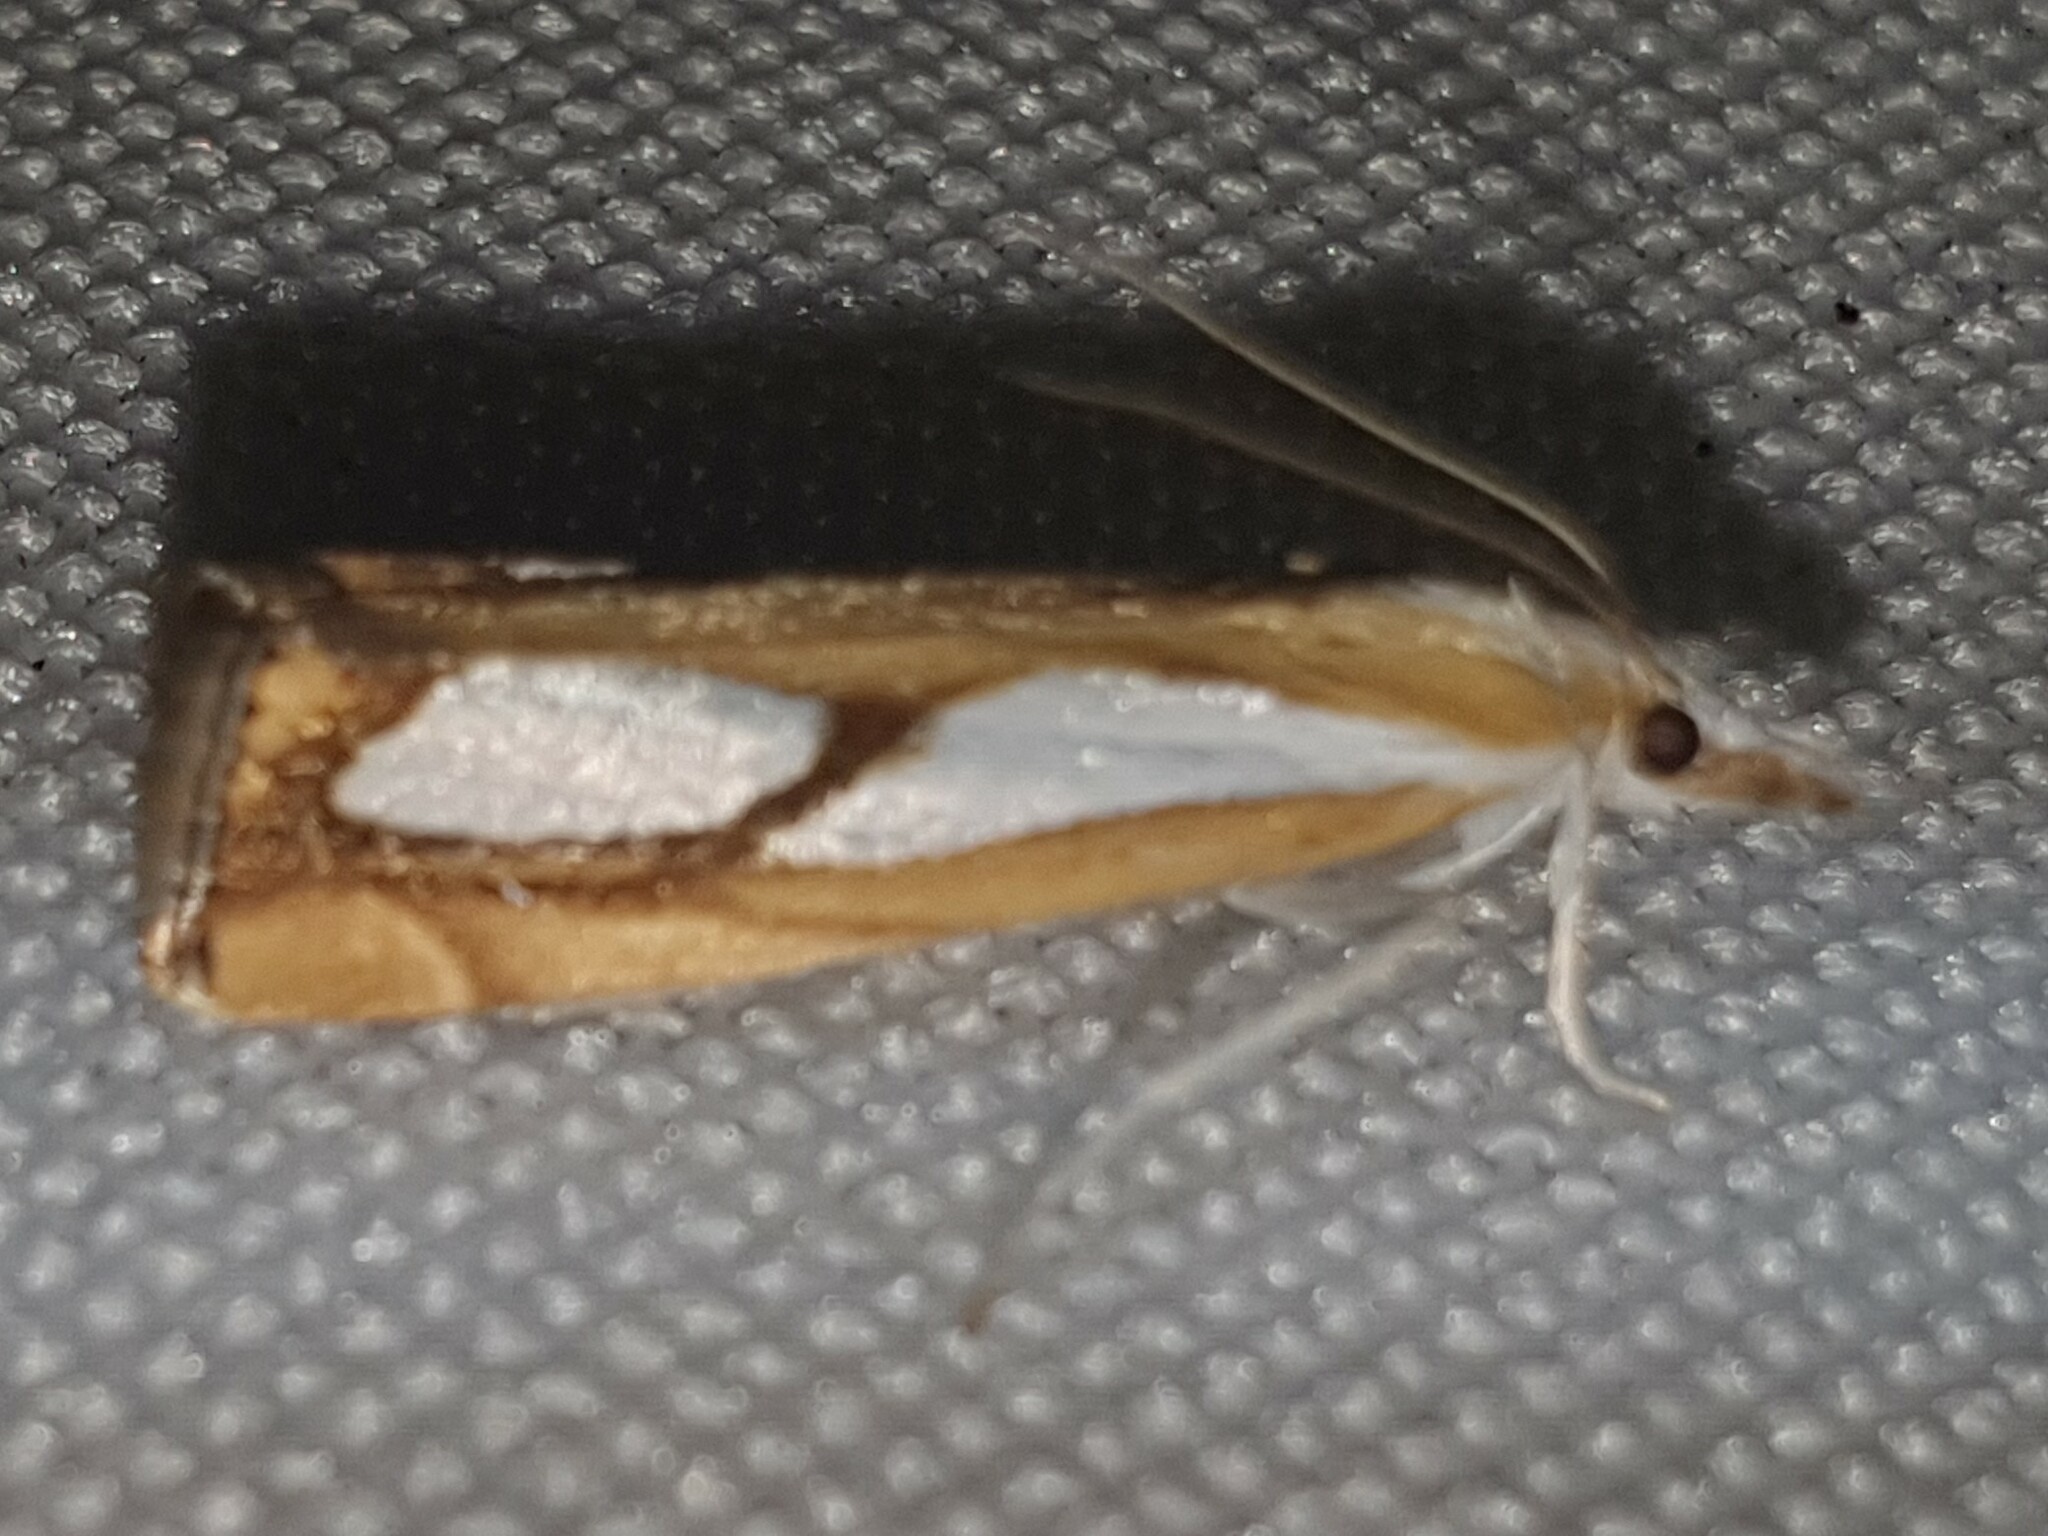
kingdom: Animalia
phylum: Arthropoda
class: Insecta
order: Lepidoptera
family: Crambidae
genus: Catoptria
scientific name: Catoptria pinella
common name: Pearl grass-veneer
